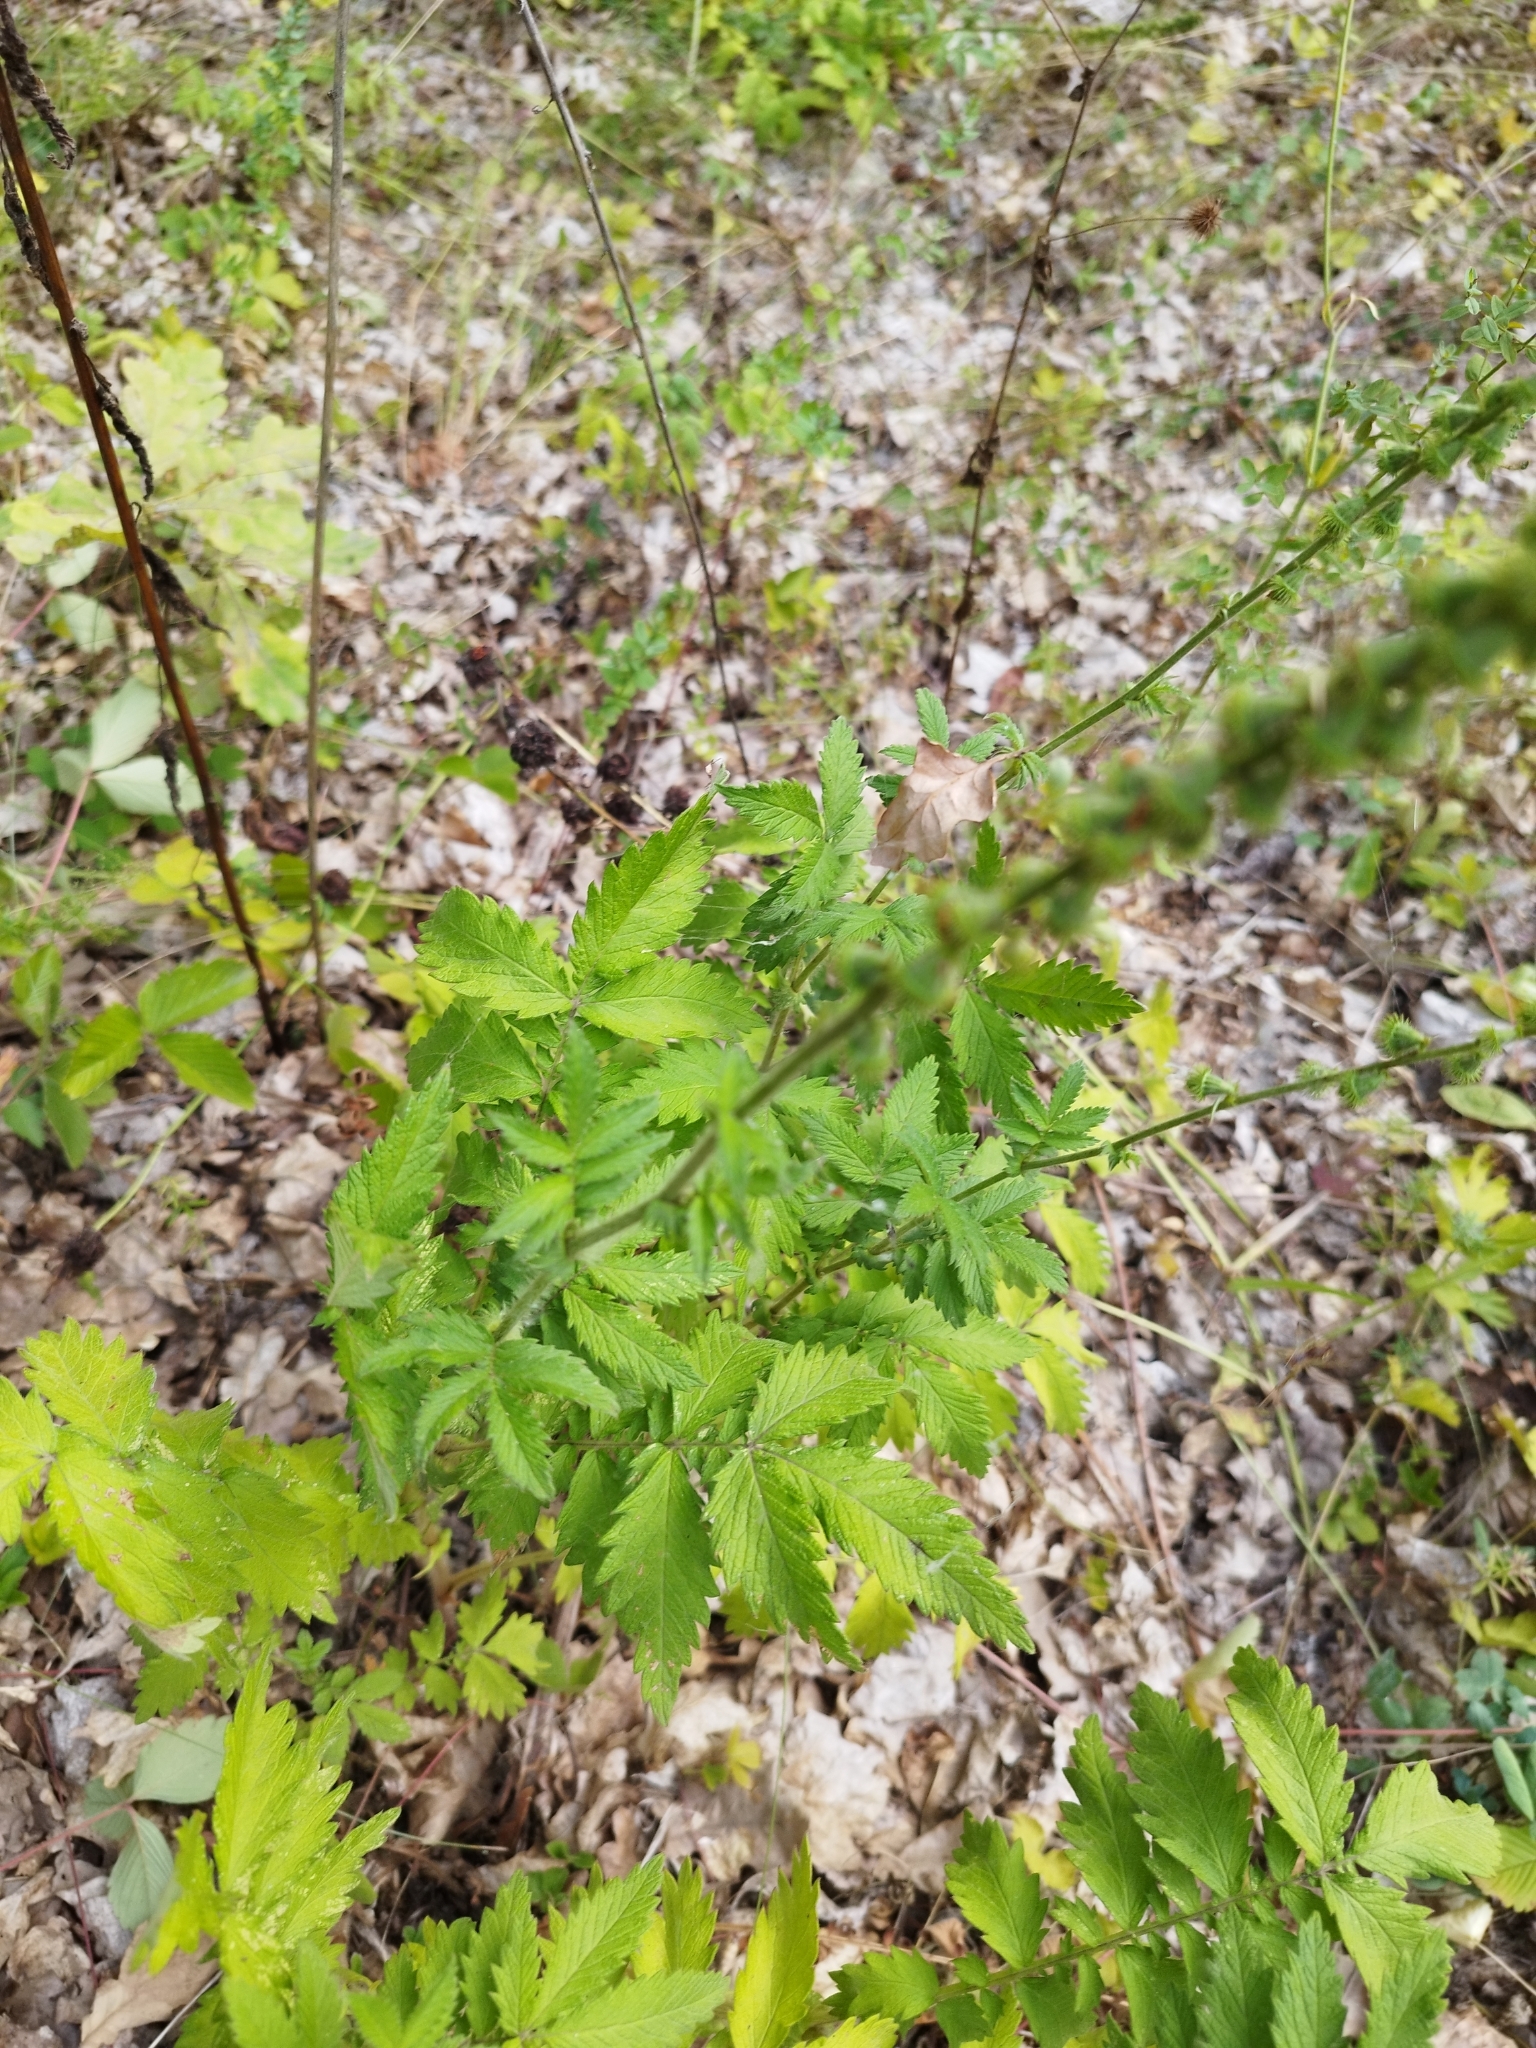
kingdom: Plantae
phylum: Tracheophyta
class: Magnoliopsida
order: Rosales
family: Rosaceae
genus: Agrimonia
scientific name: Agrimonia eupatoria
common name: Agrimony
